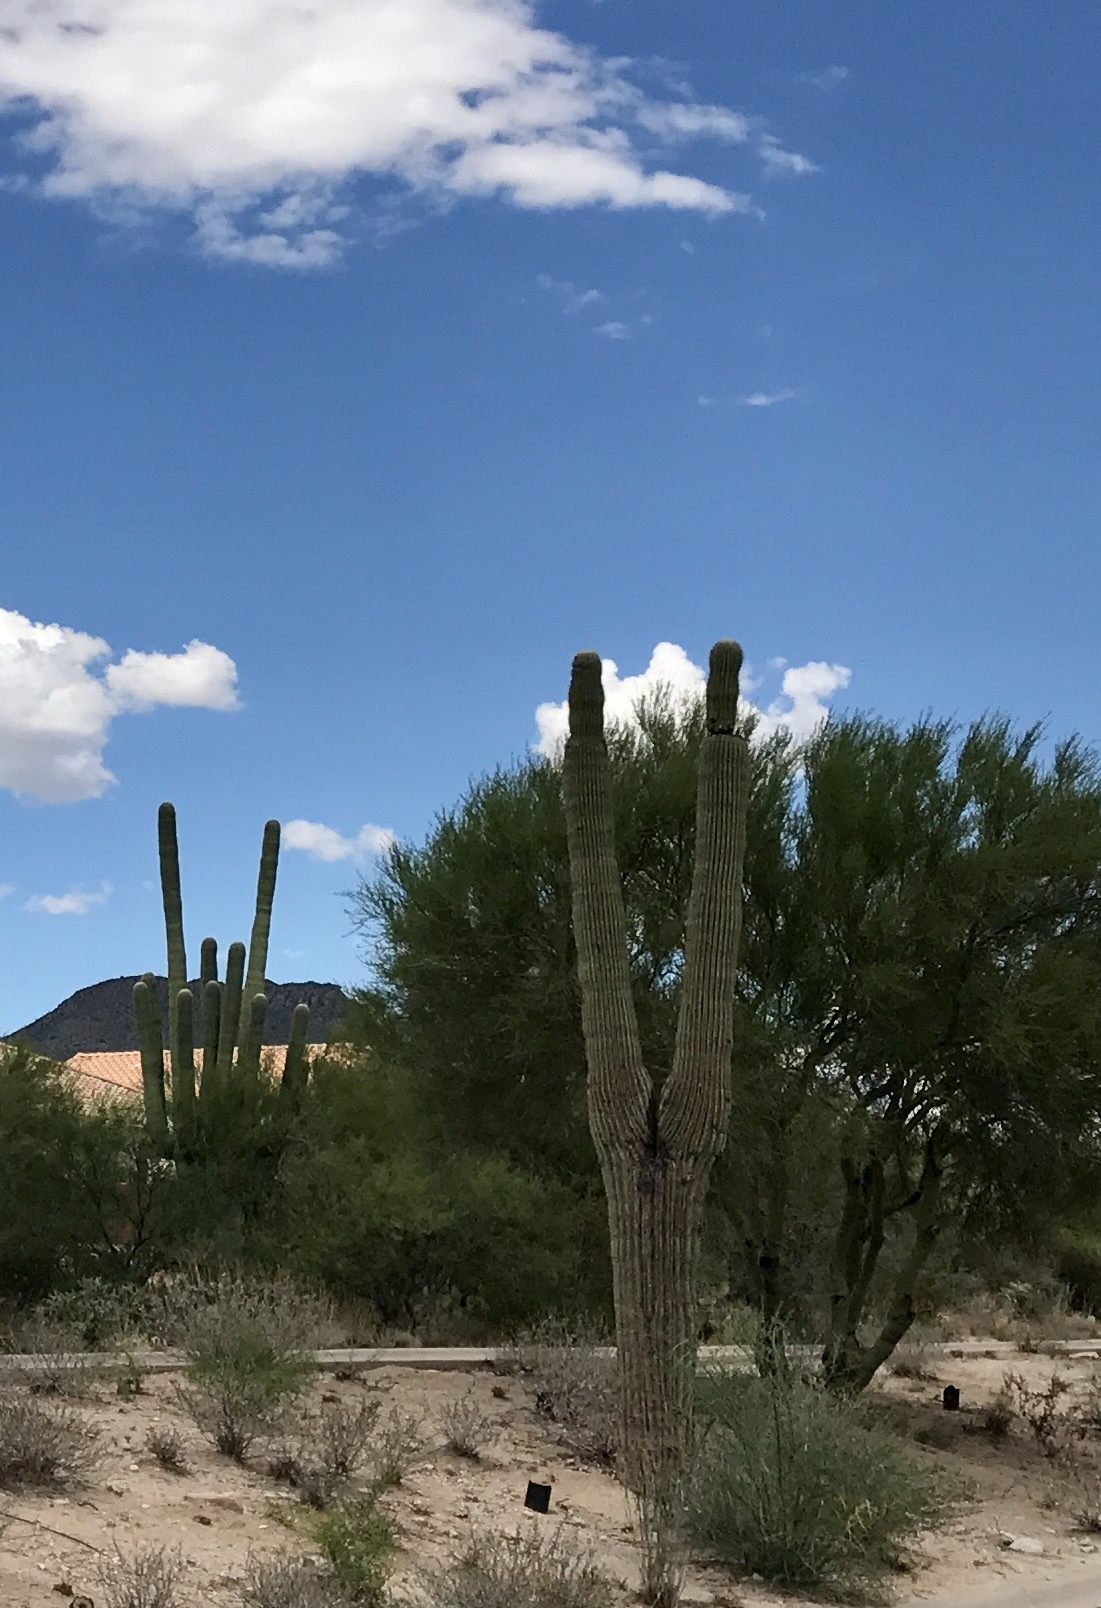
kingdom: Plantae
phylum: Tracheophyta
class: Magnoliopsida
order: Caryophyllales
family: Cactaceae
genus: Carnegiea
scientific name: Carnegiea gigantea
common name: Saguaro
